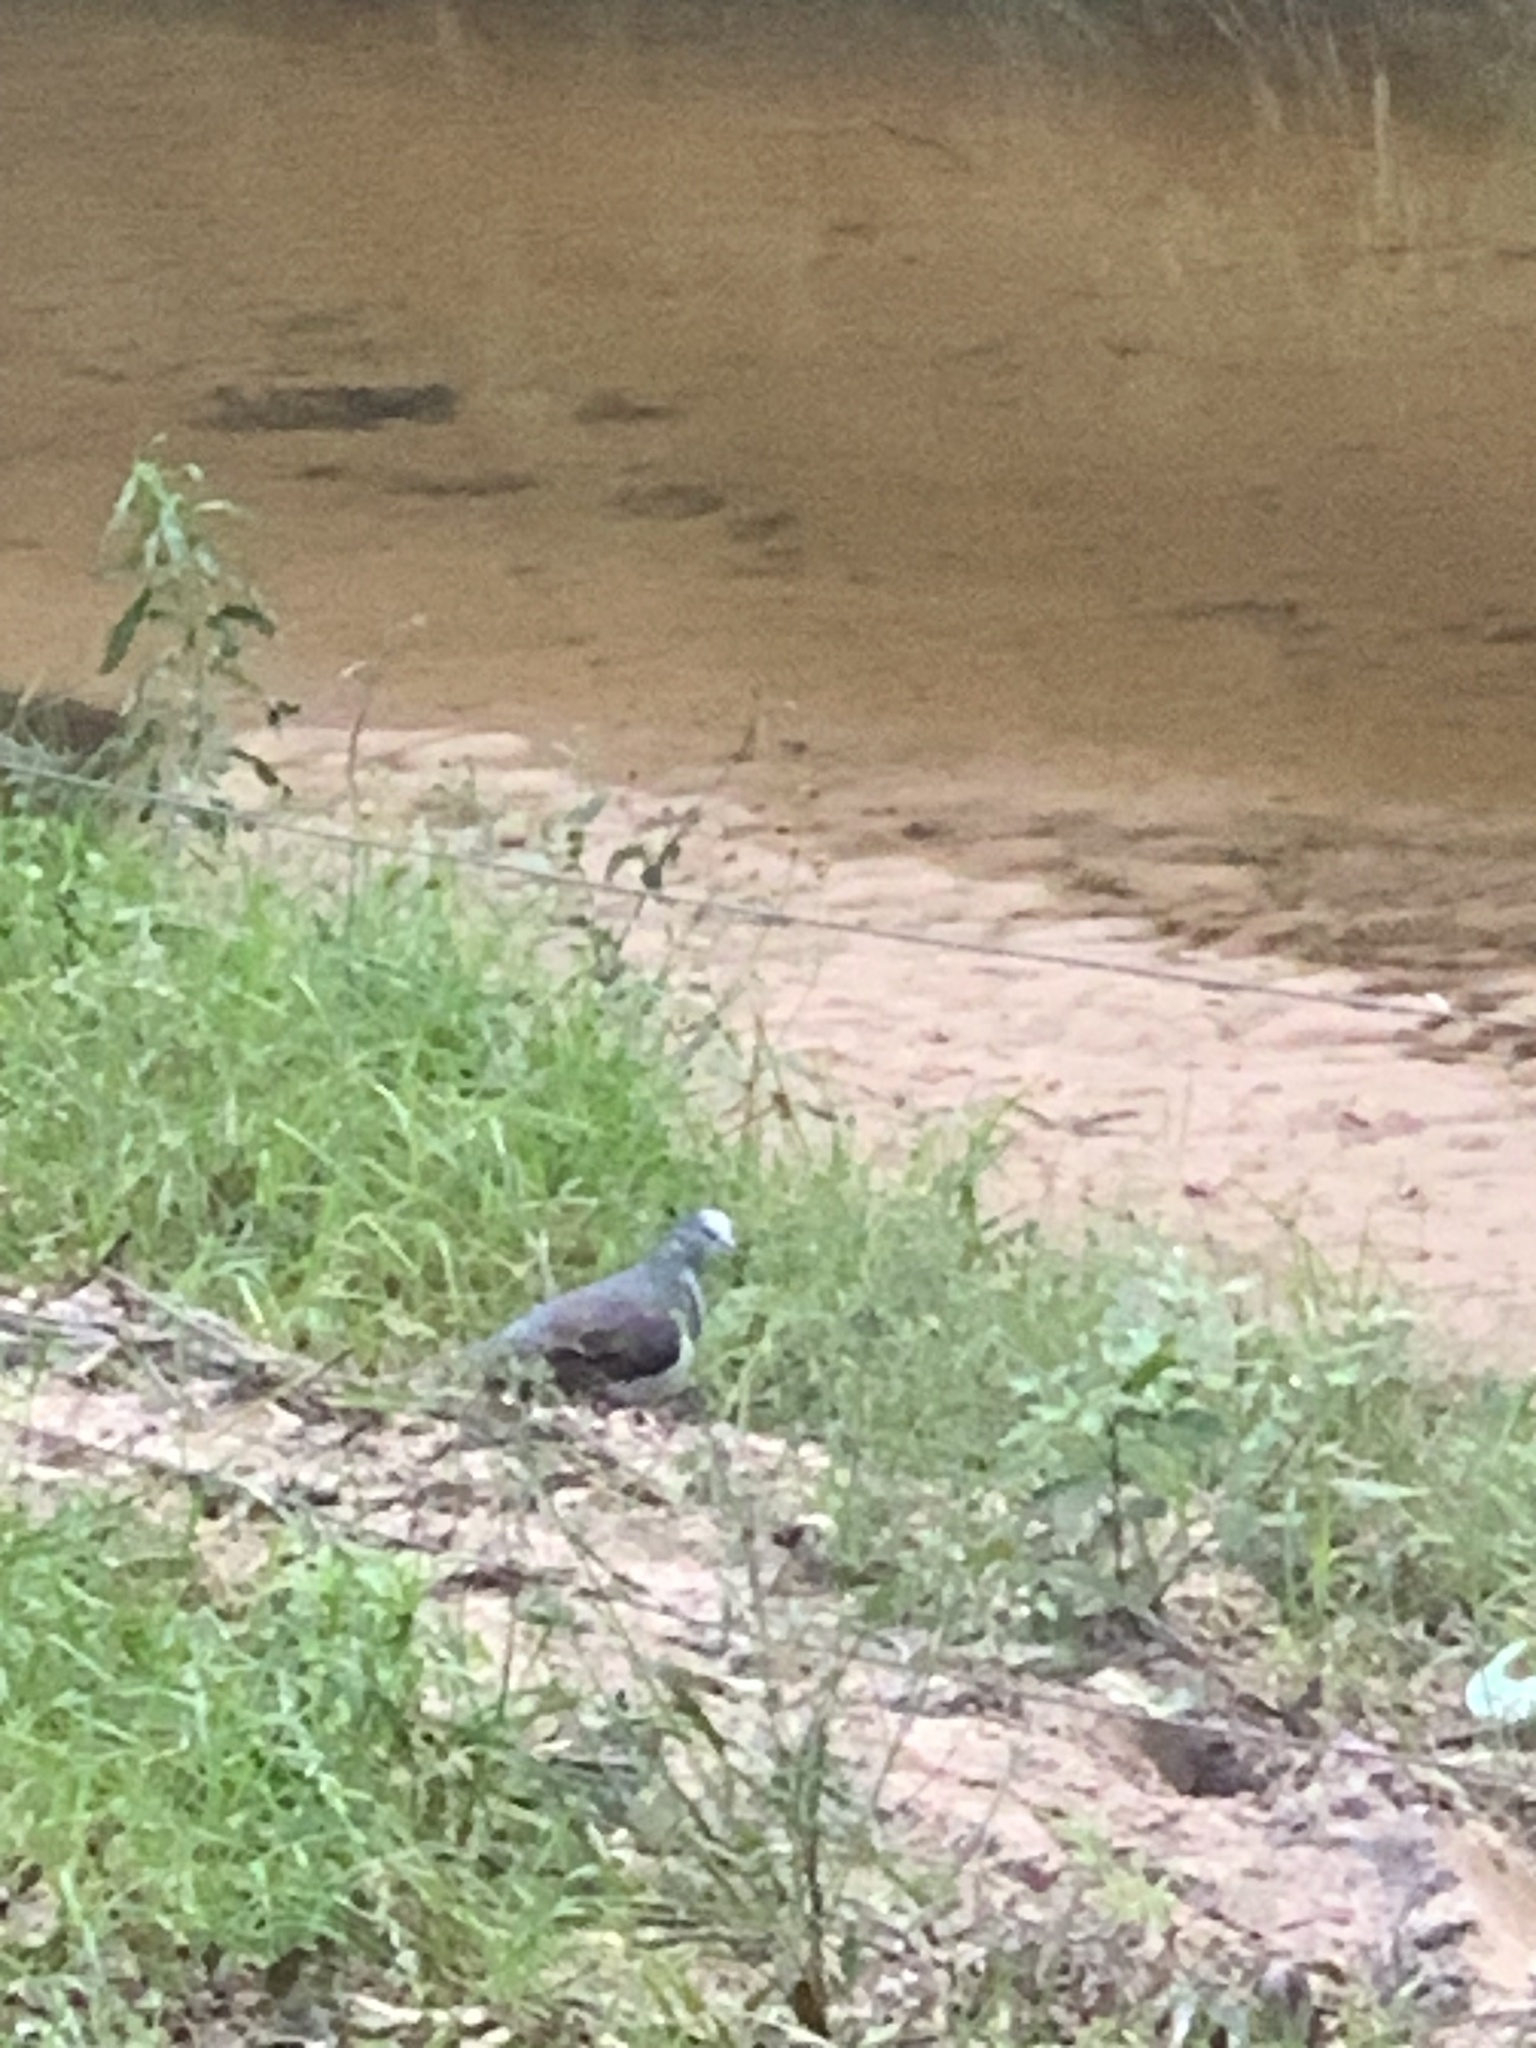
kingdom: Animalia
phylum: Chordata
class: Aves
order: Columbiformes
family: Columbidae
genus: Leucosarcia
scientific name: Leucosarcia melanoleuca
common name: Wonga pigeon
